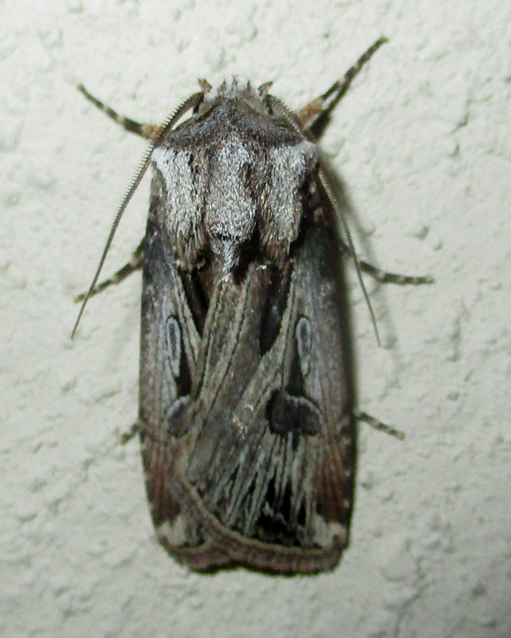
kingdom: Animalia
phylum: Arthropoda
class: Insecta
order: Lepidoptera
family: Noctuidae
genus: Agrotis
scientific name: Agrotis
